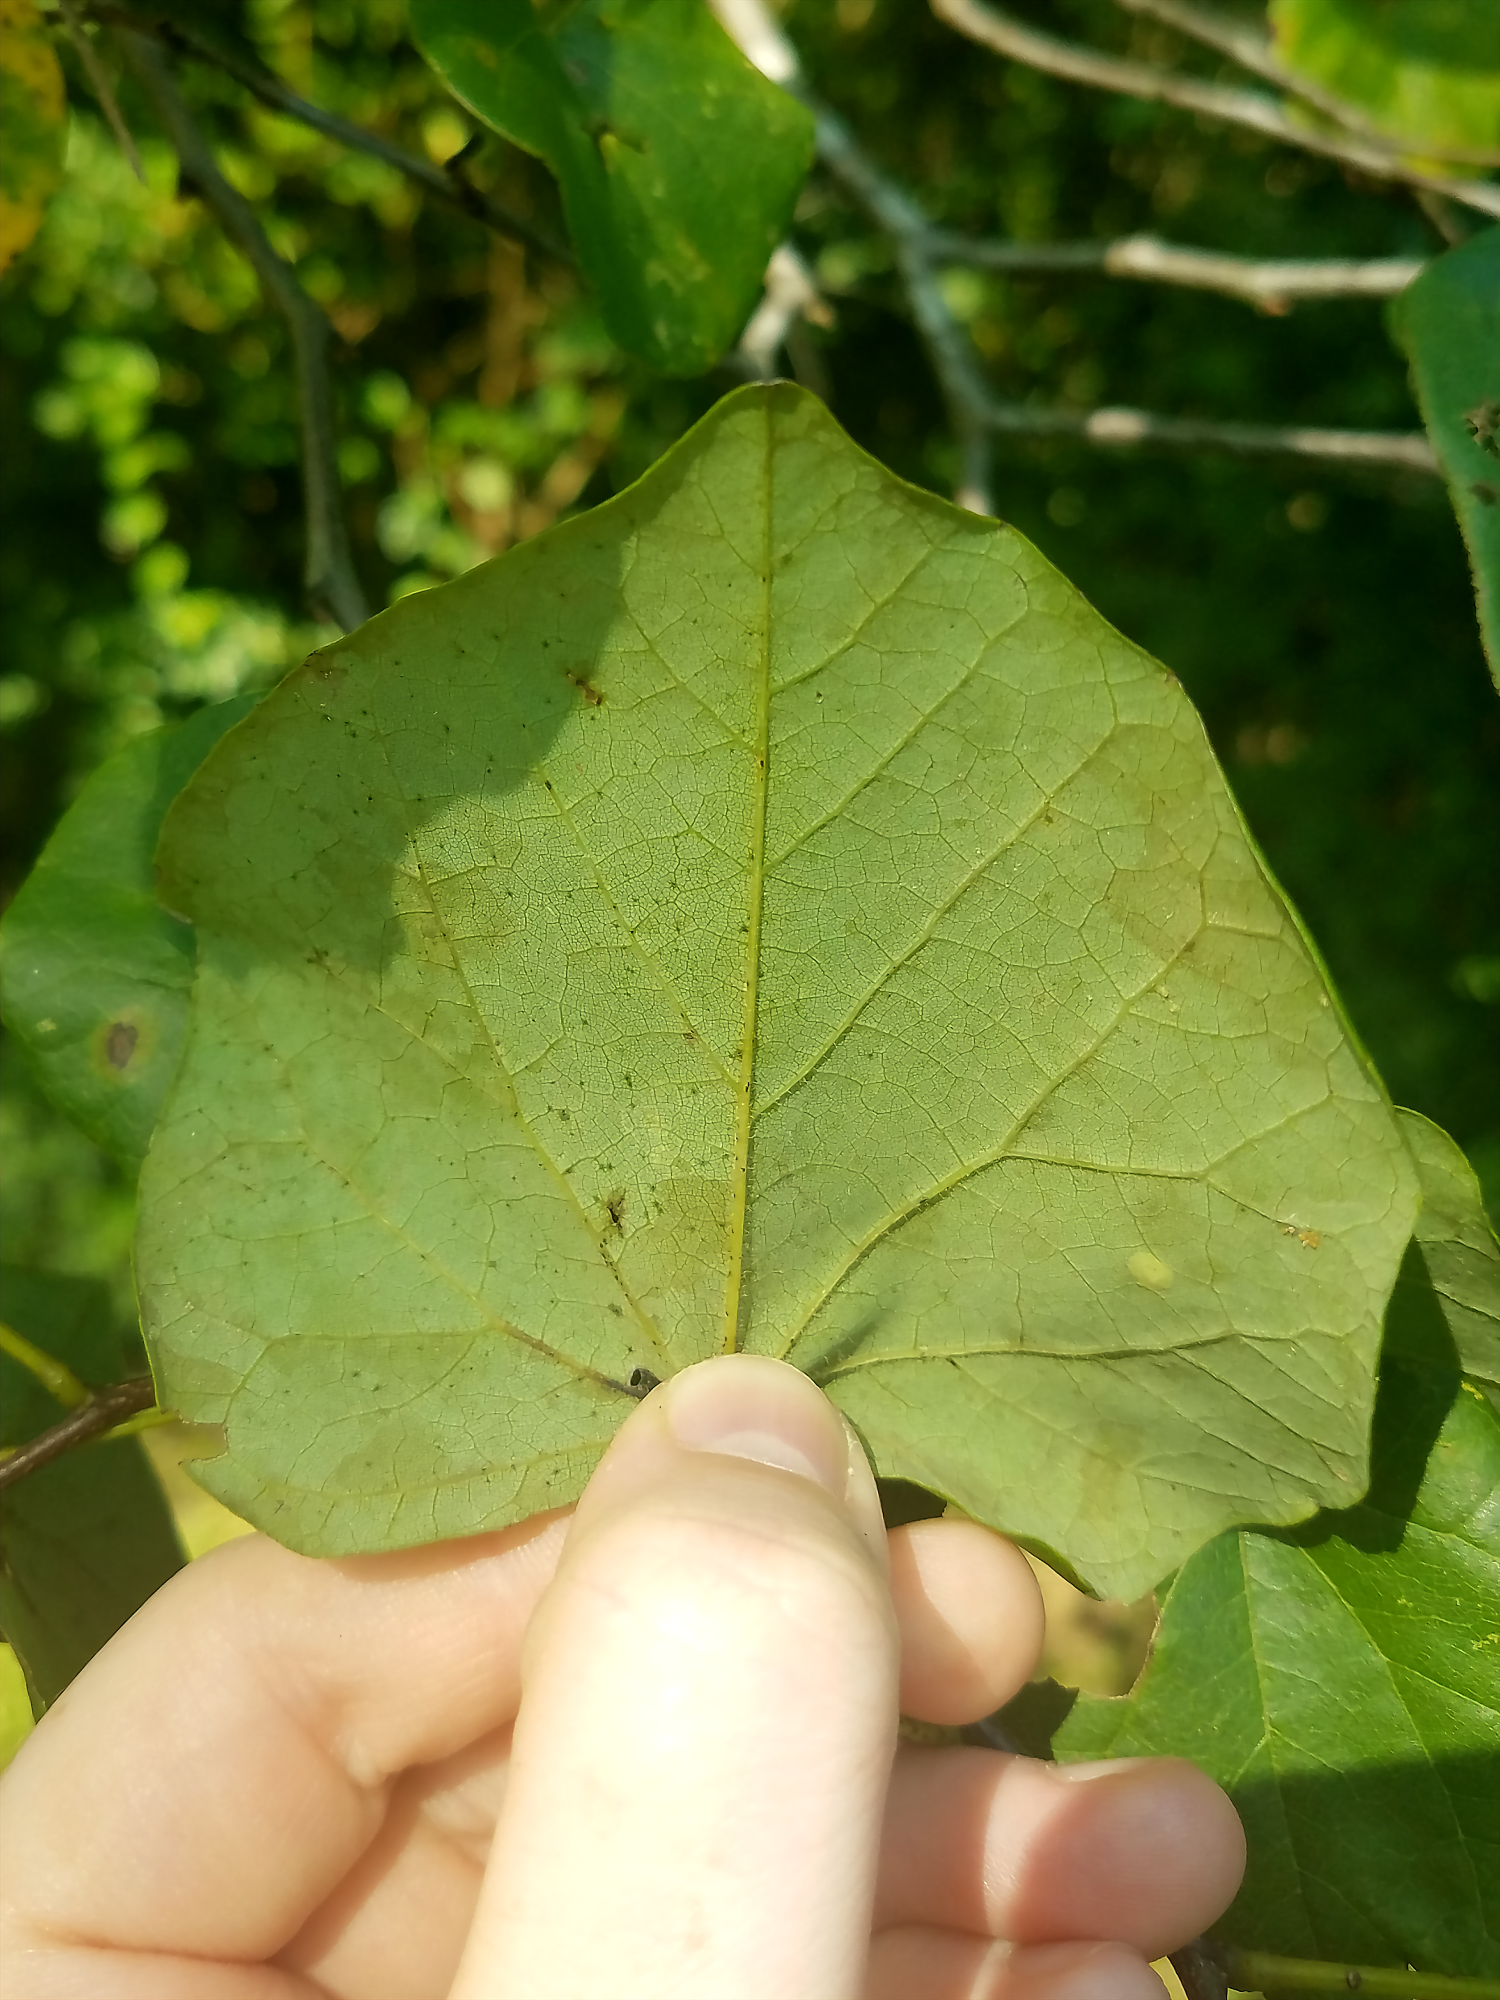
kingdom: Plantae
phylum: Tracheophyta
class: Magnoliopsida
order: Fabales
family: Fabaceae
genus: Cercis
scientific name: Cercis canadensis
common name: Eastern redbud
